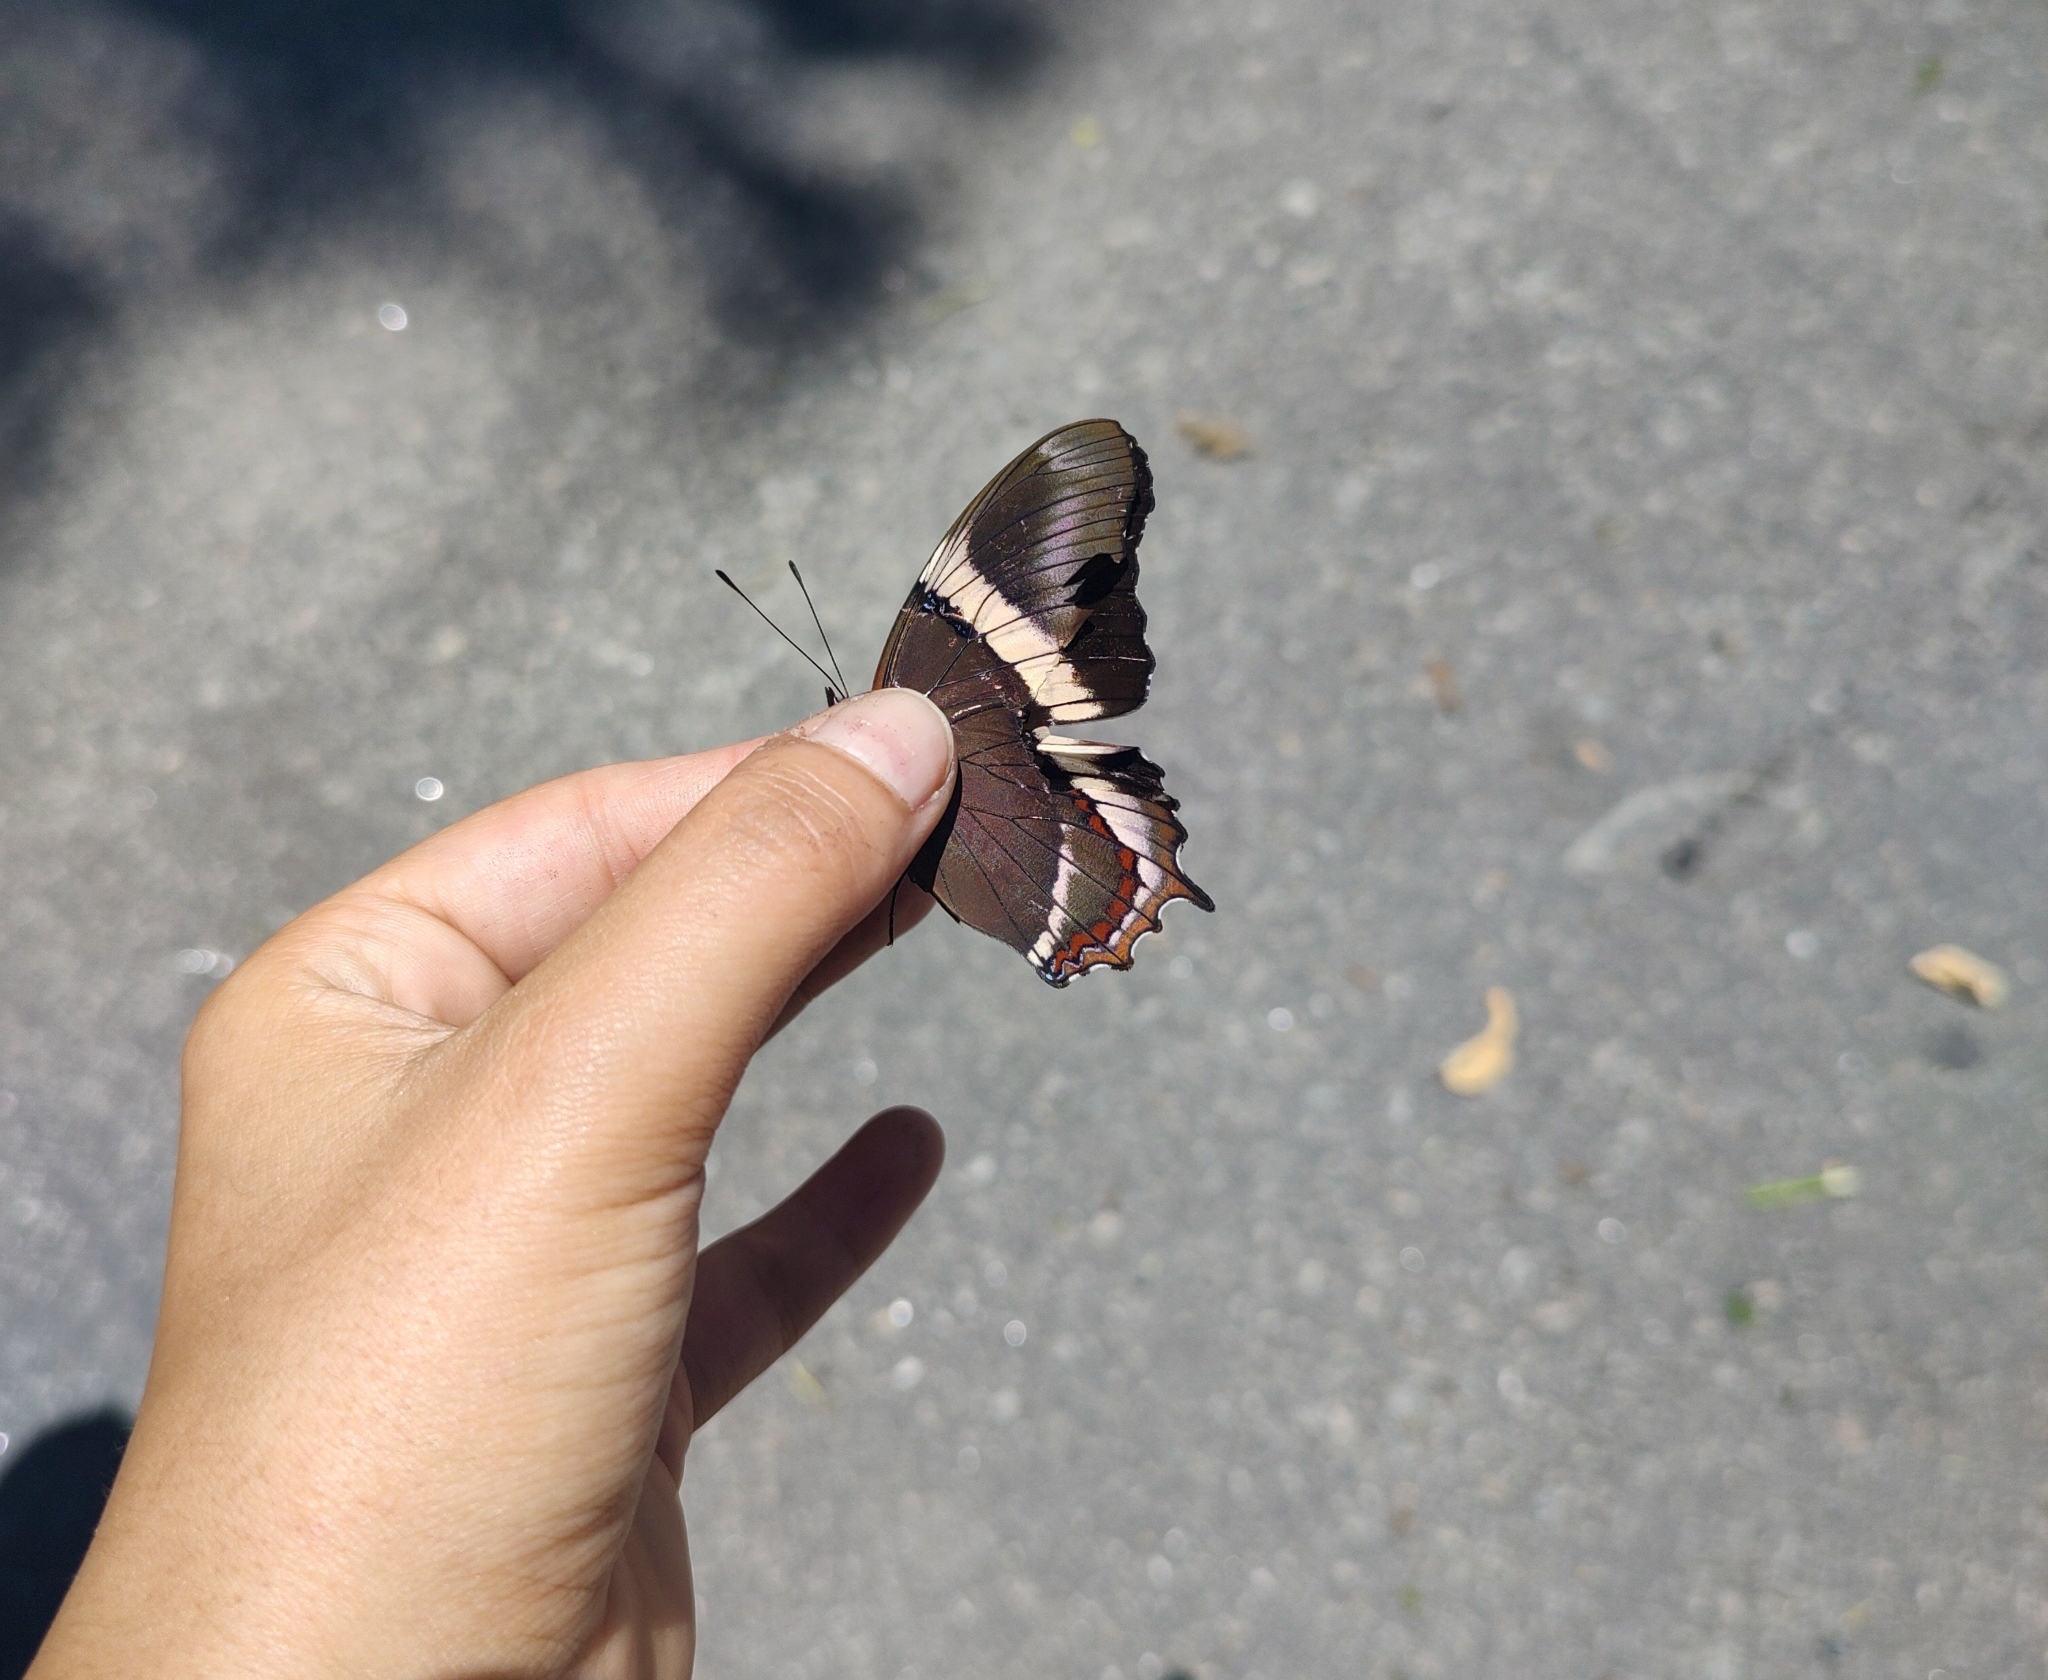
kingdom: Animalia
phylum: Arthropoda
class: Insecta
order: Lepidoptera
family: Nymphalidae
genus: Siproeta
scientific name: Siproeta epaphus
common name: Rusty-tipped page
